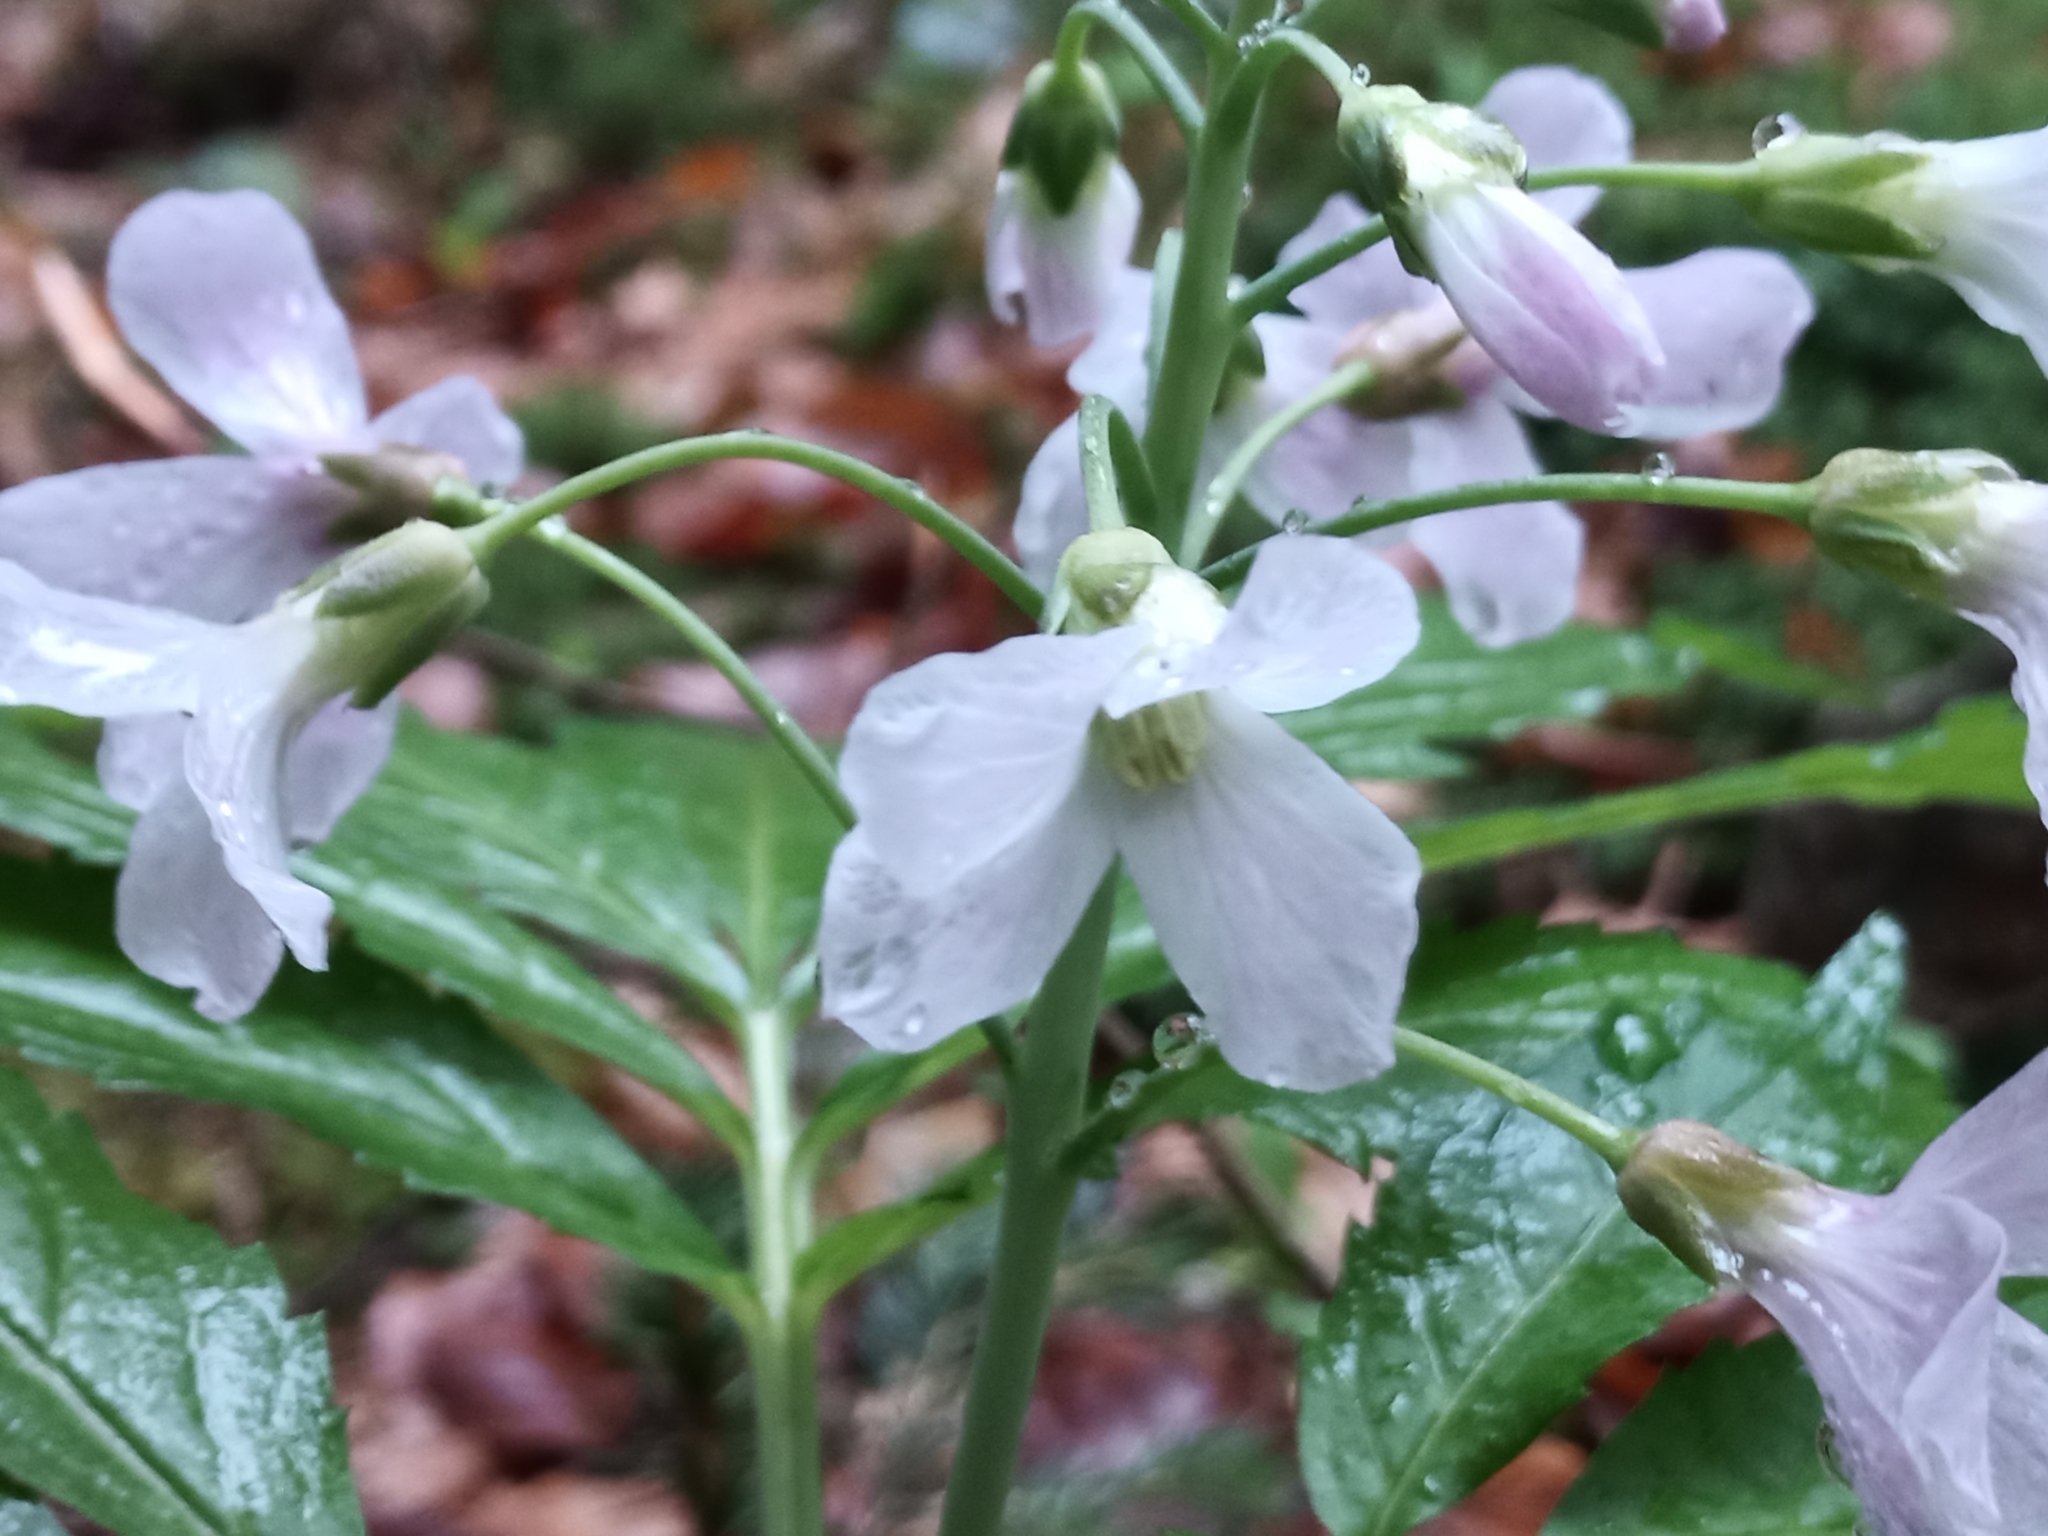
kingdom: Plantae
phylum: Tracheophyta
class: Magnoliopsida
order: Brassicales
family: Brassicaceae
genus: Cardamine
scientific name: Cardamine heptaphylla
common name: Pinnate coralroot
